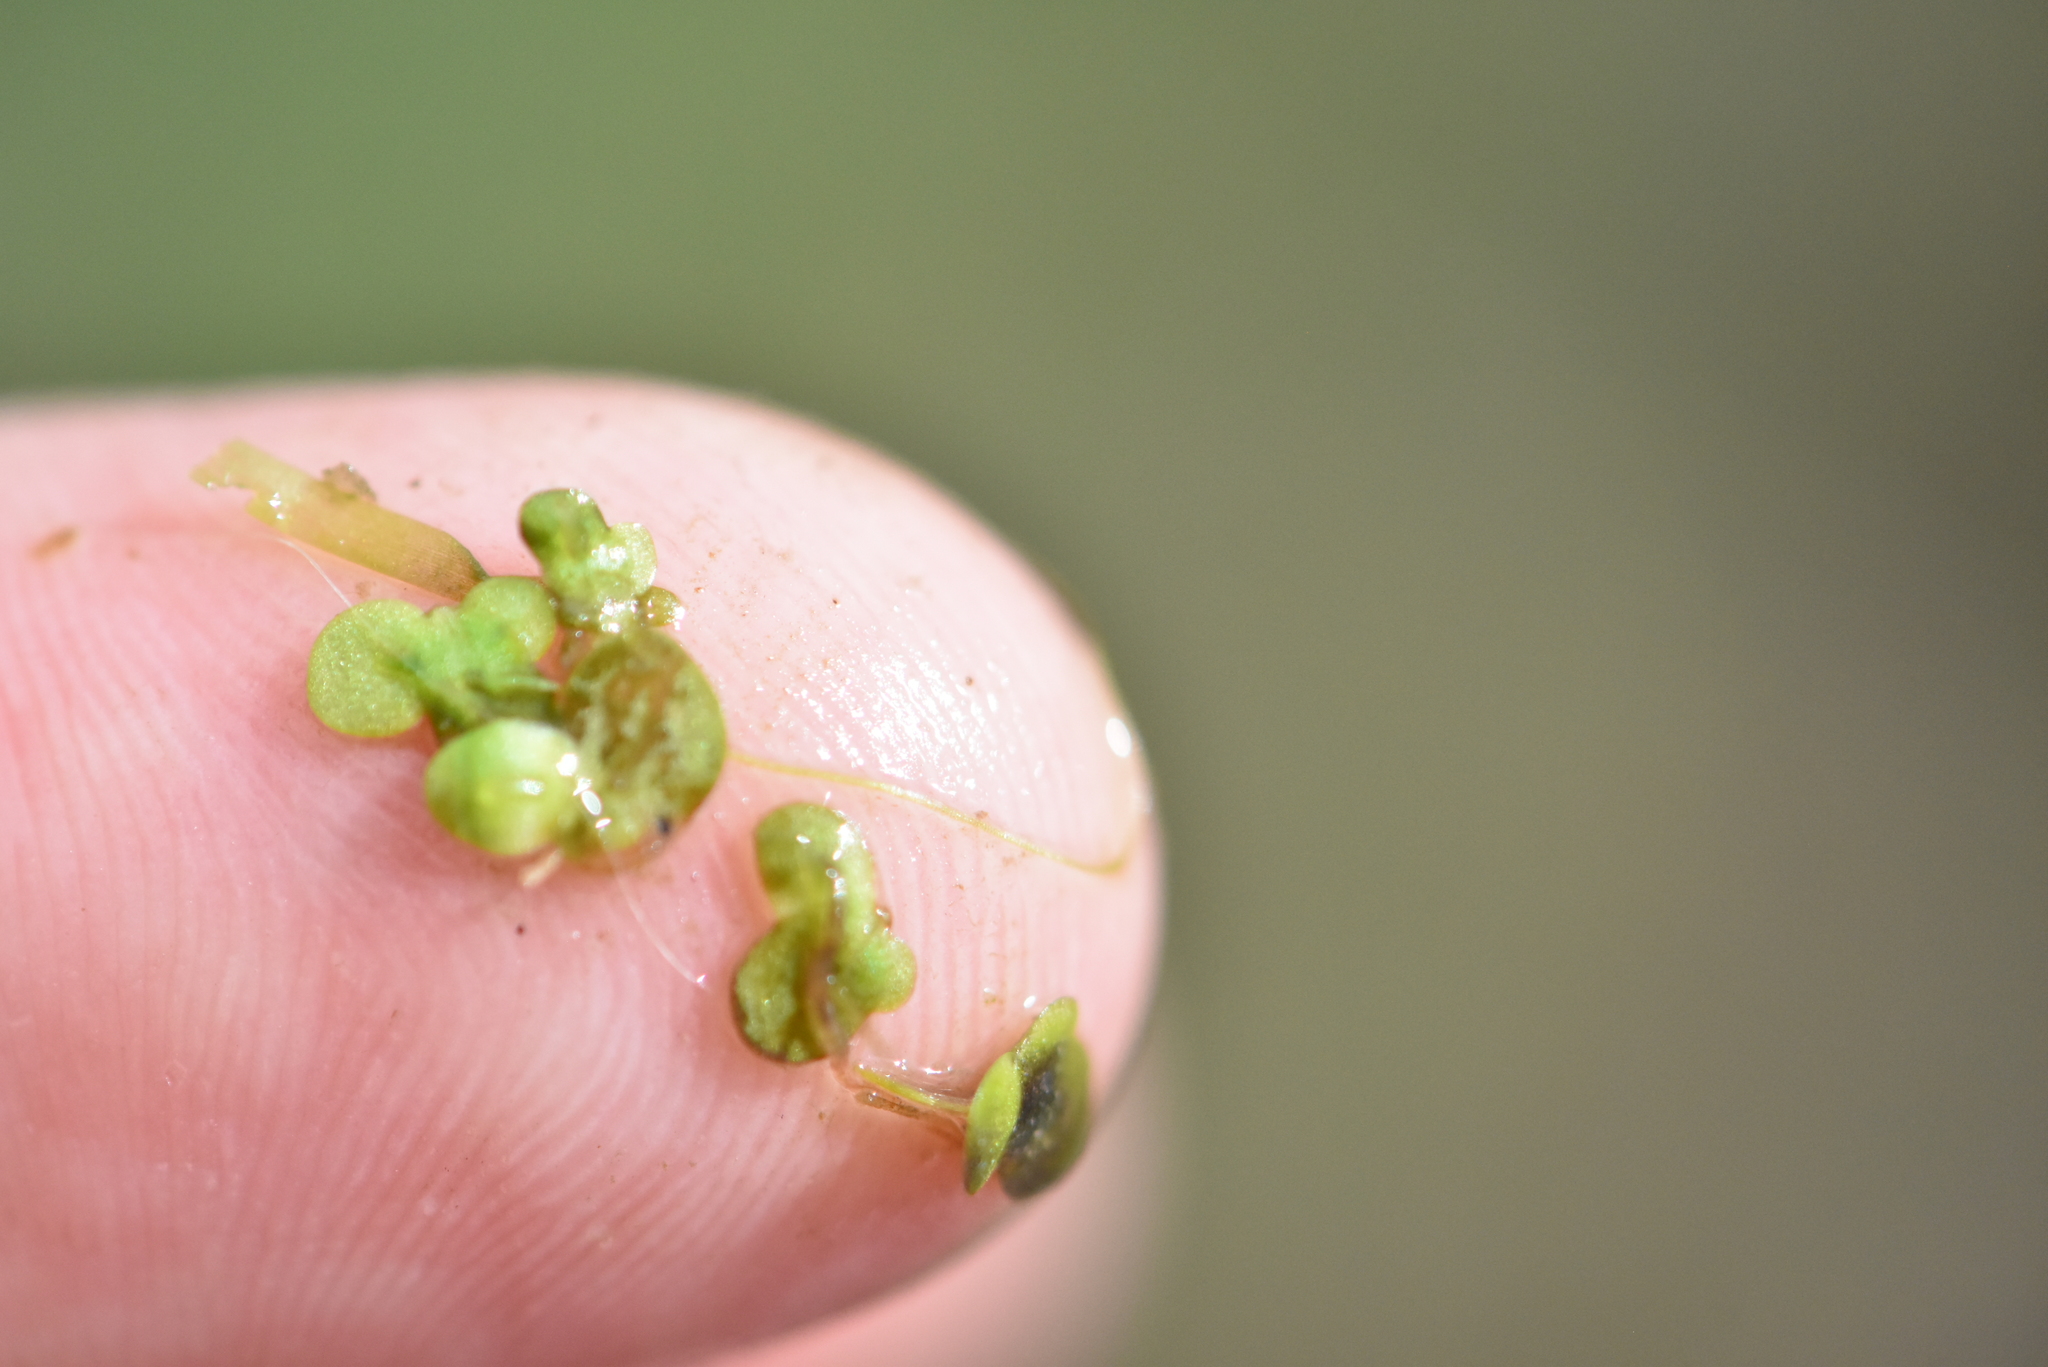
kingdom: Plantae
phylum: Tracheophyta
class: Liliopsida
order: Alismatales
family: Araceae
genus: Lemna
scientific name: Lemna minor
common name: Common duckweed
